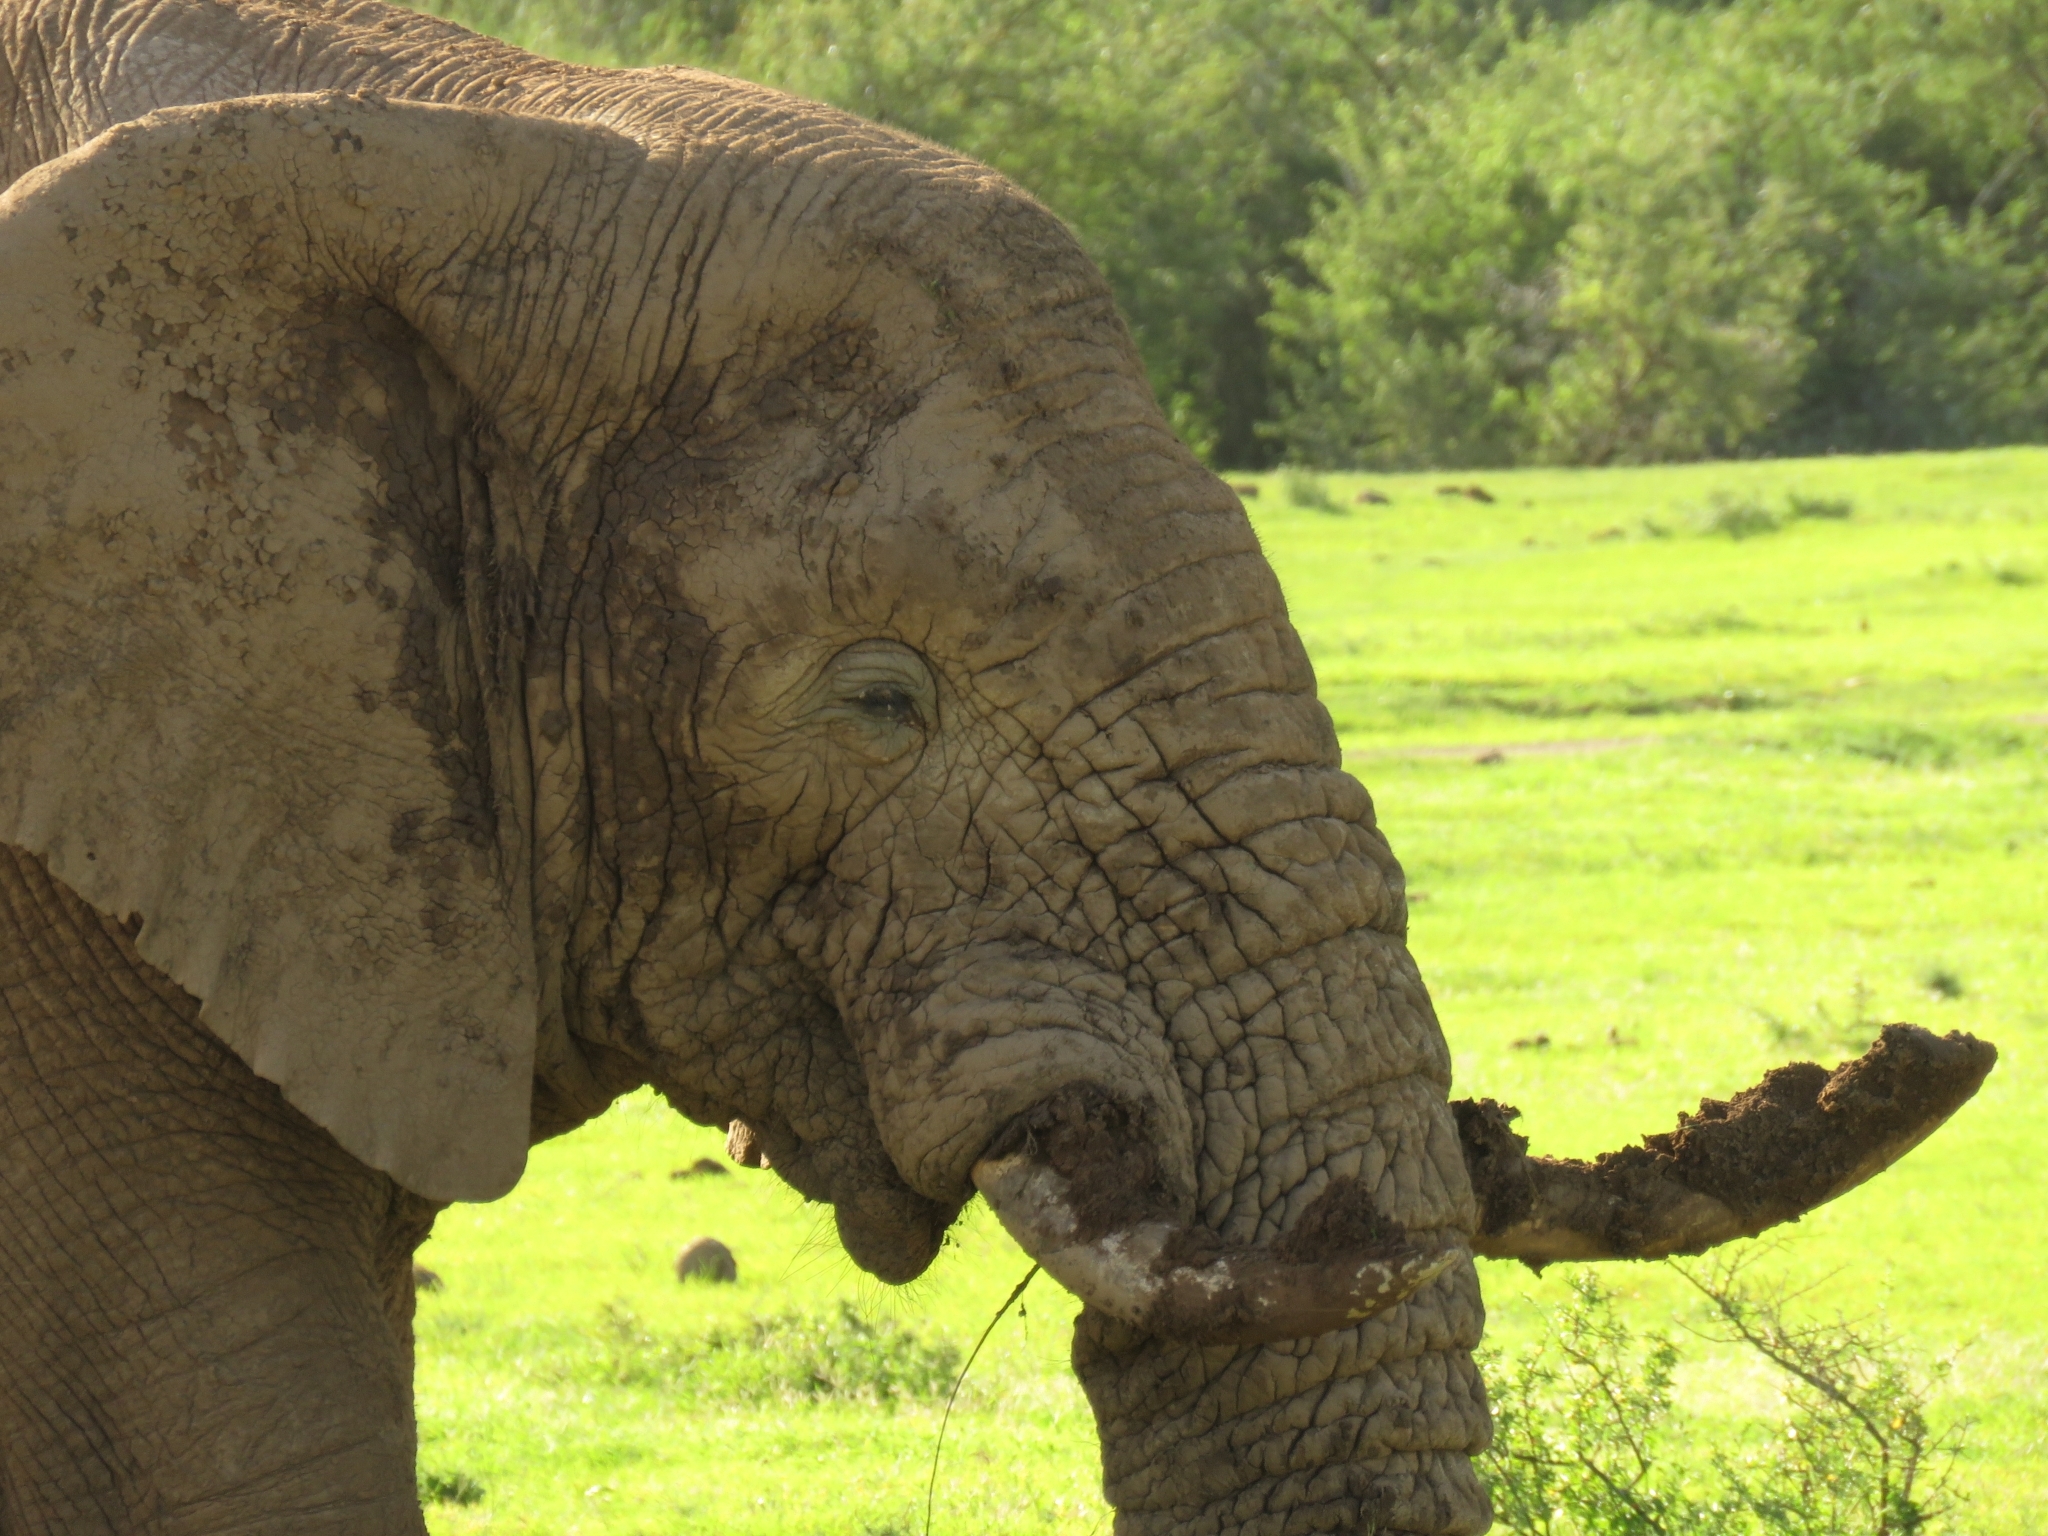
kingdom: Animalia
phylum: Chordata
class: Mammalia
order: Proboscidea
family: Elephantidae
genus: Loxodonta
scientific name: Loxodonta africana
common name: African elephant
